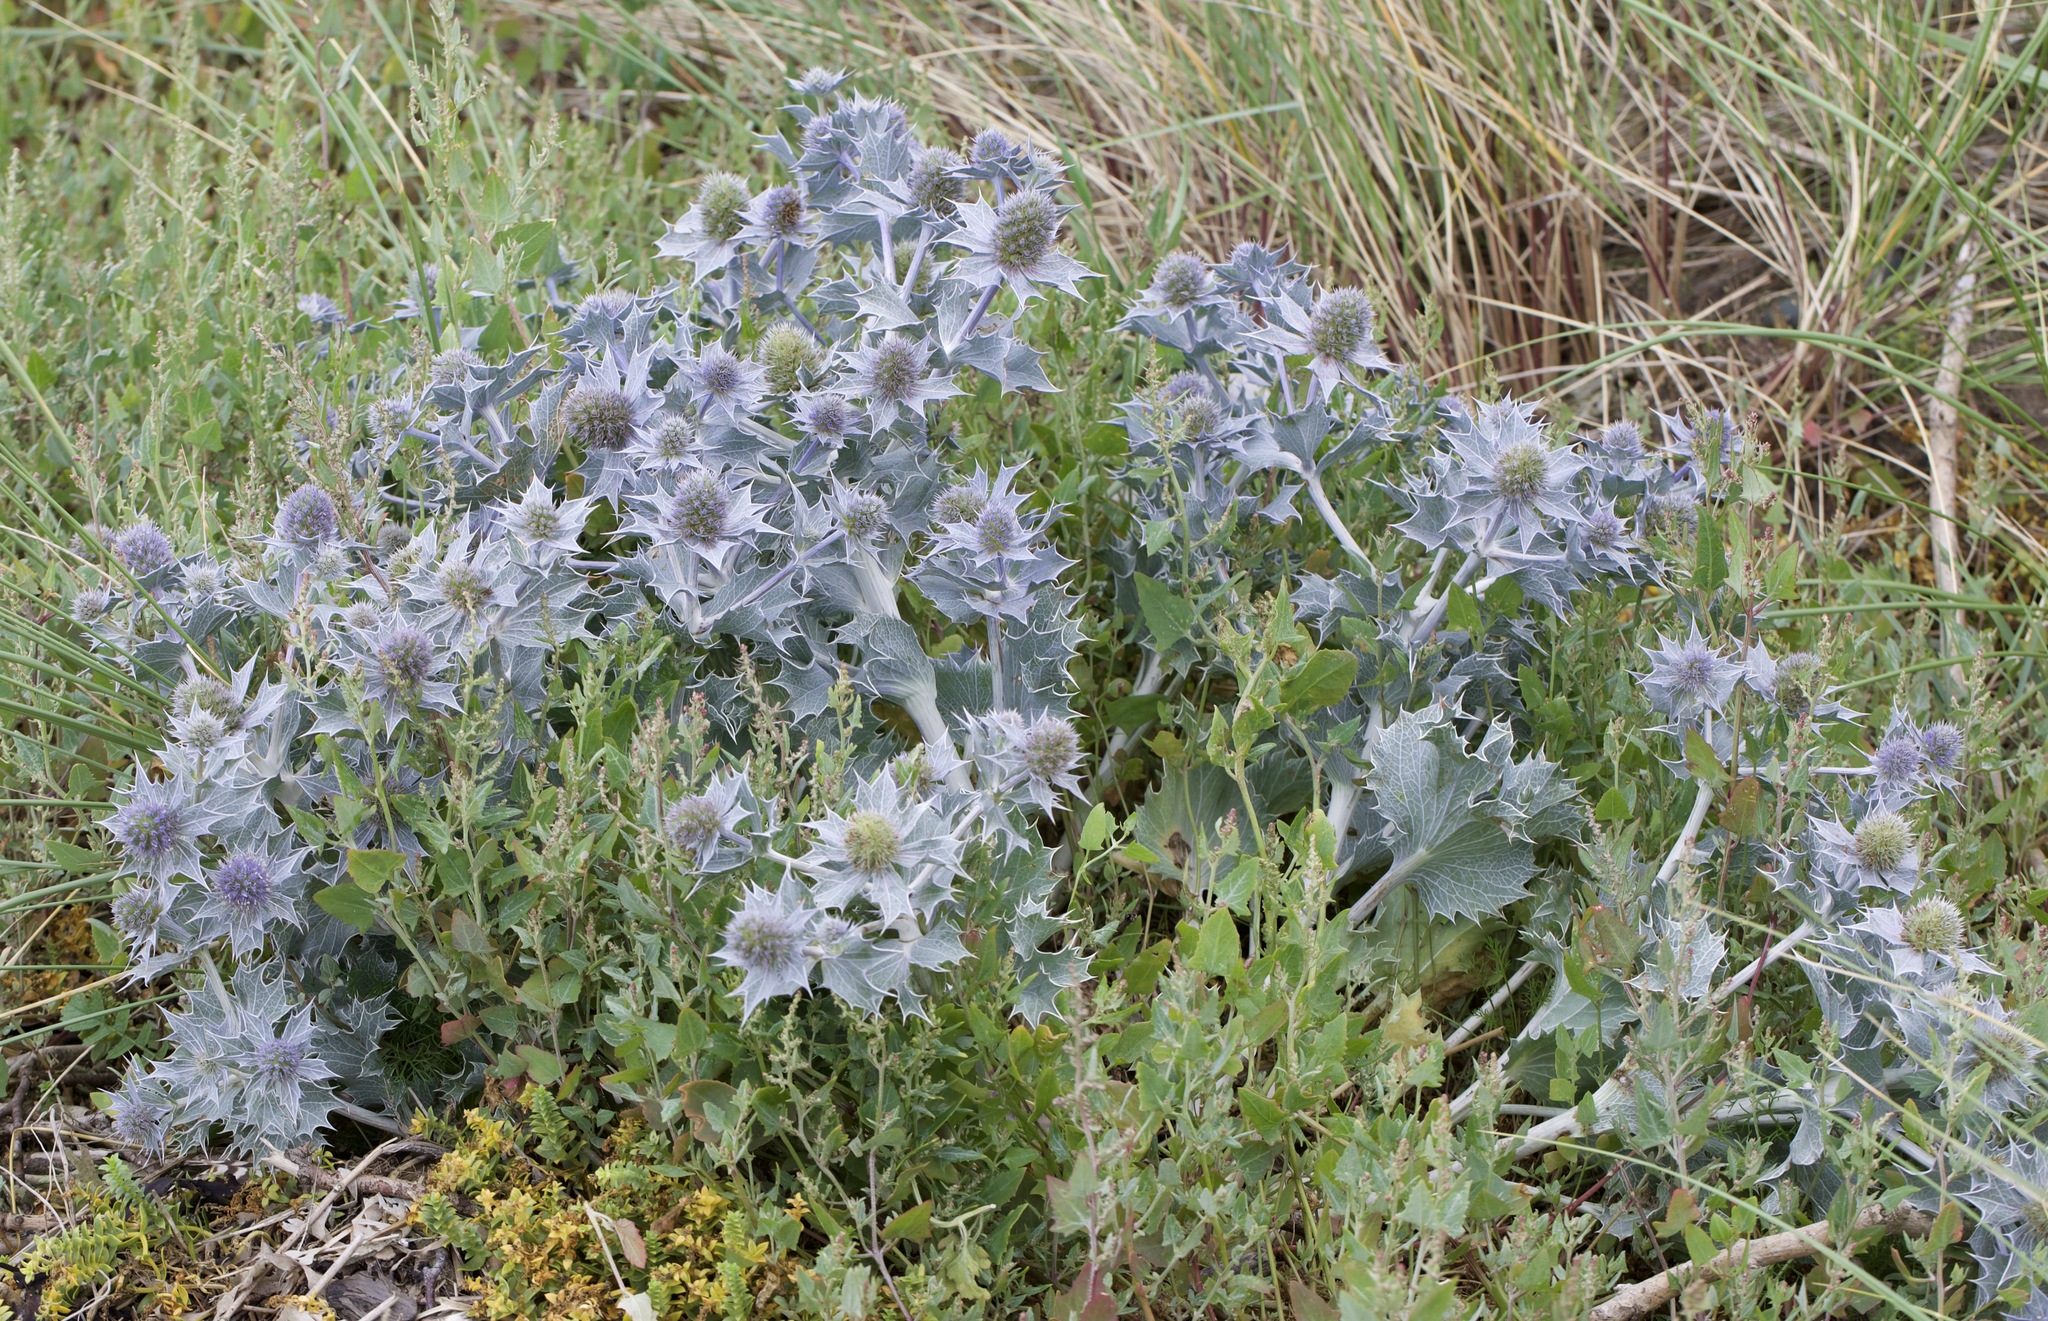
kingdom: Plantae
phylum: Tracheophyta
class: Magnoliopsida
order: Apiales
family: Apiaceae
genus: Eryngium
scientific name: Eryngium maritimum
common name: Sea-holly
